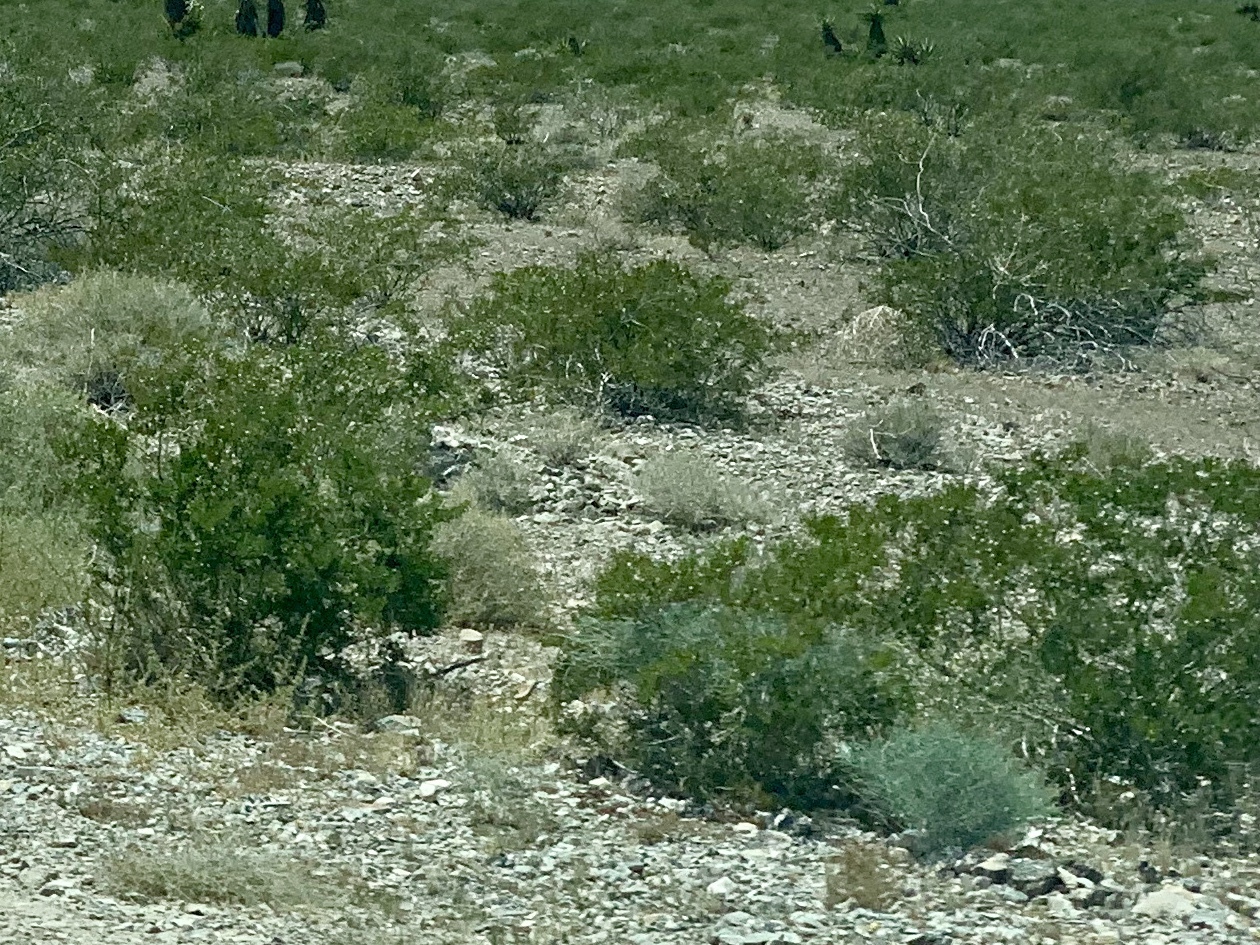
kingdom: Plantae
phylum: Tracheophyta
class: Magnoliopsida
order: Zygophyllales
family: Zygophyllaceae
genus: Larrea
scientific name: Larrea tridentata
